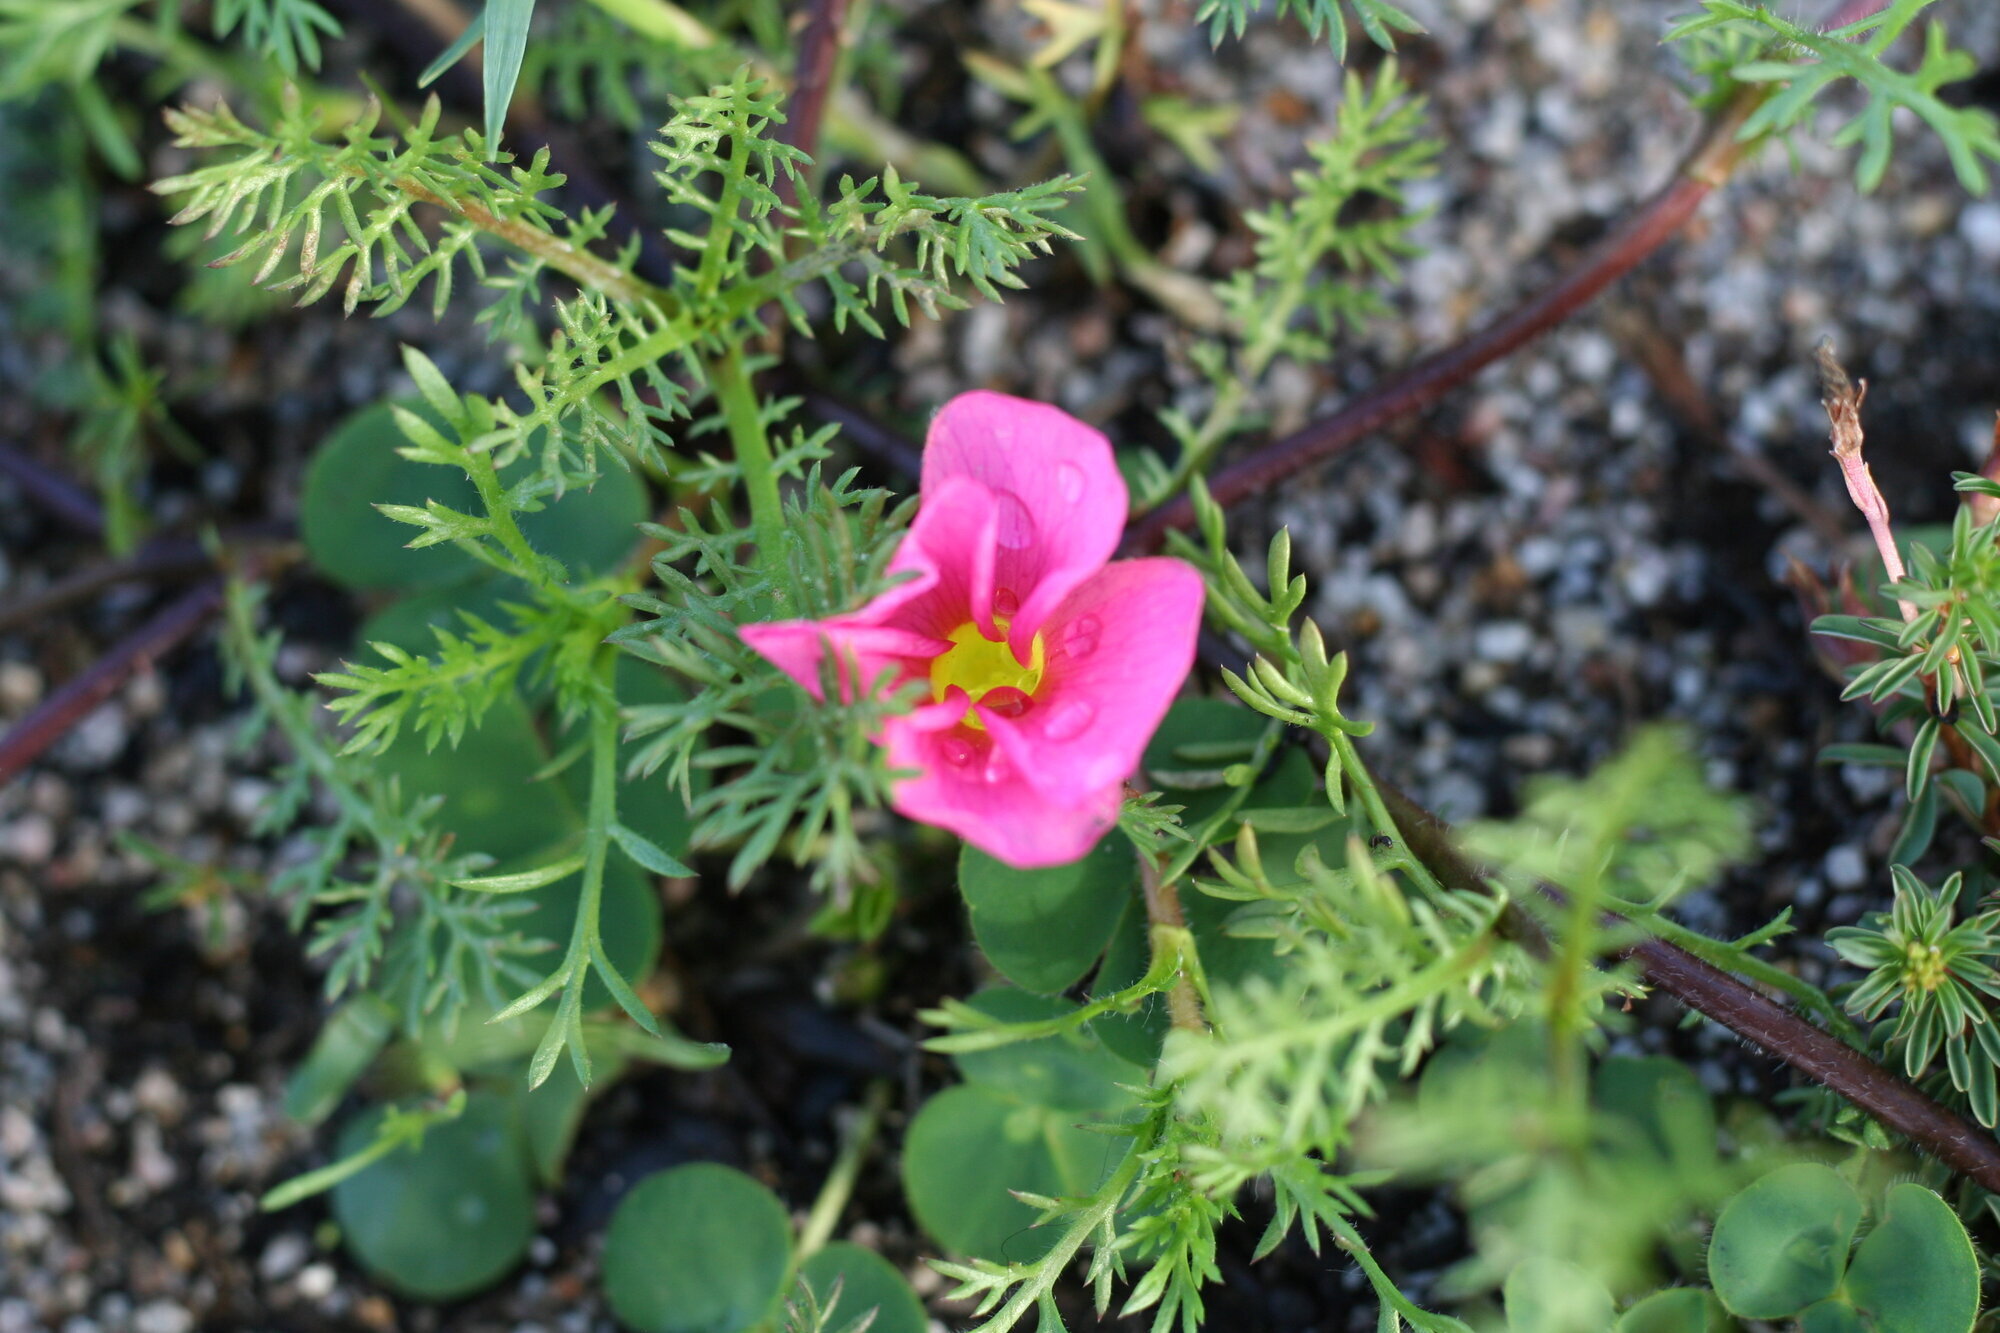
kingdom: Plantae
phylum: Tracheophyta
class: Magnoliopsida
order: Oxalidales
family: Oxalidaceae
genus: Oxalis
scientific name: Oxalis purpurea
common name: Purple woodsorrel
